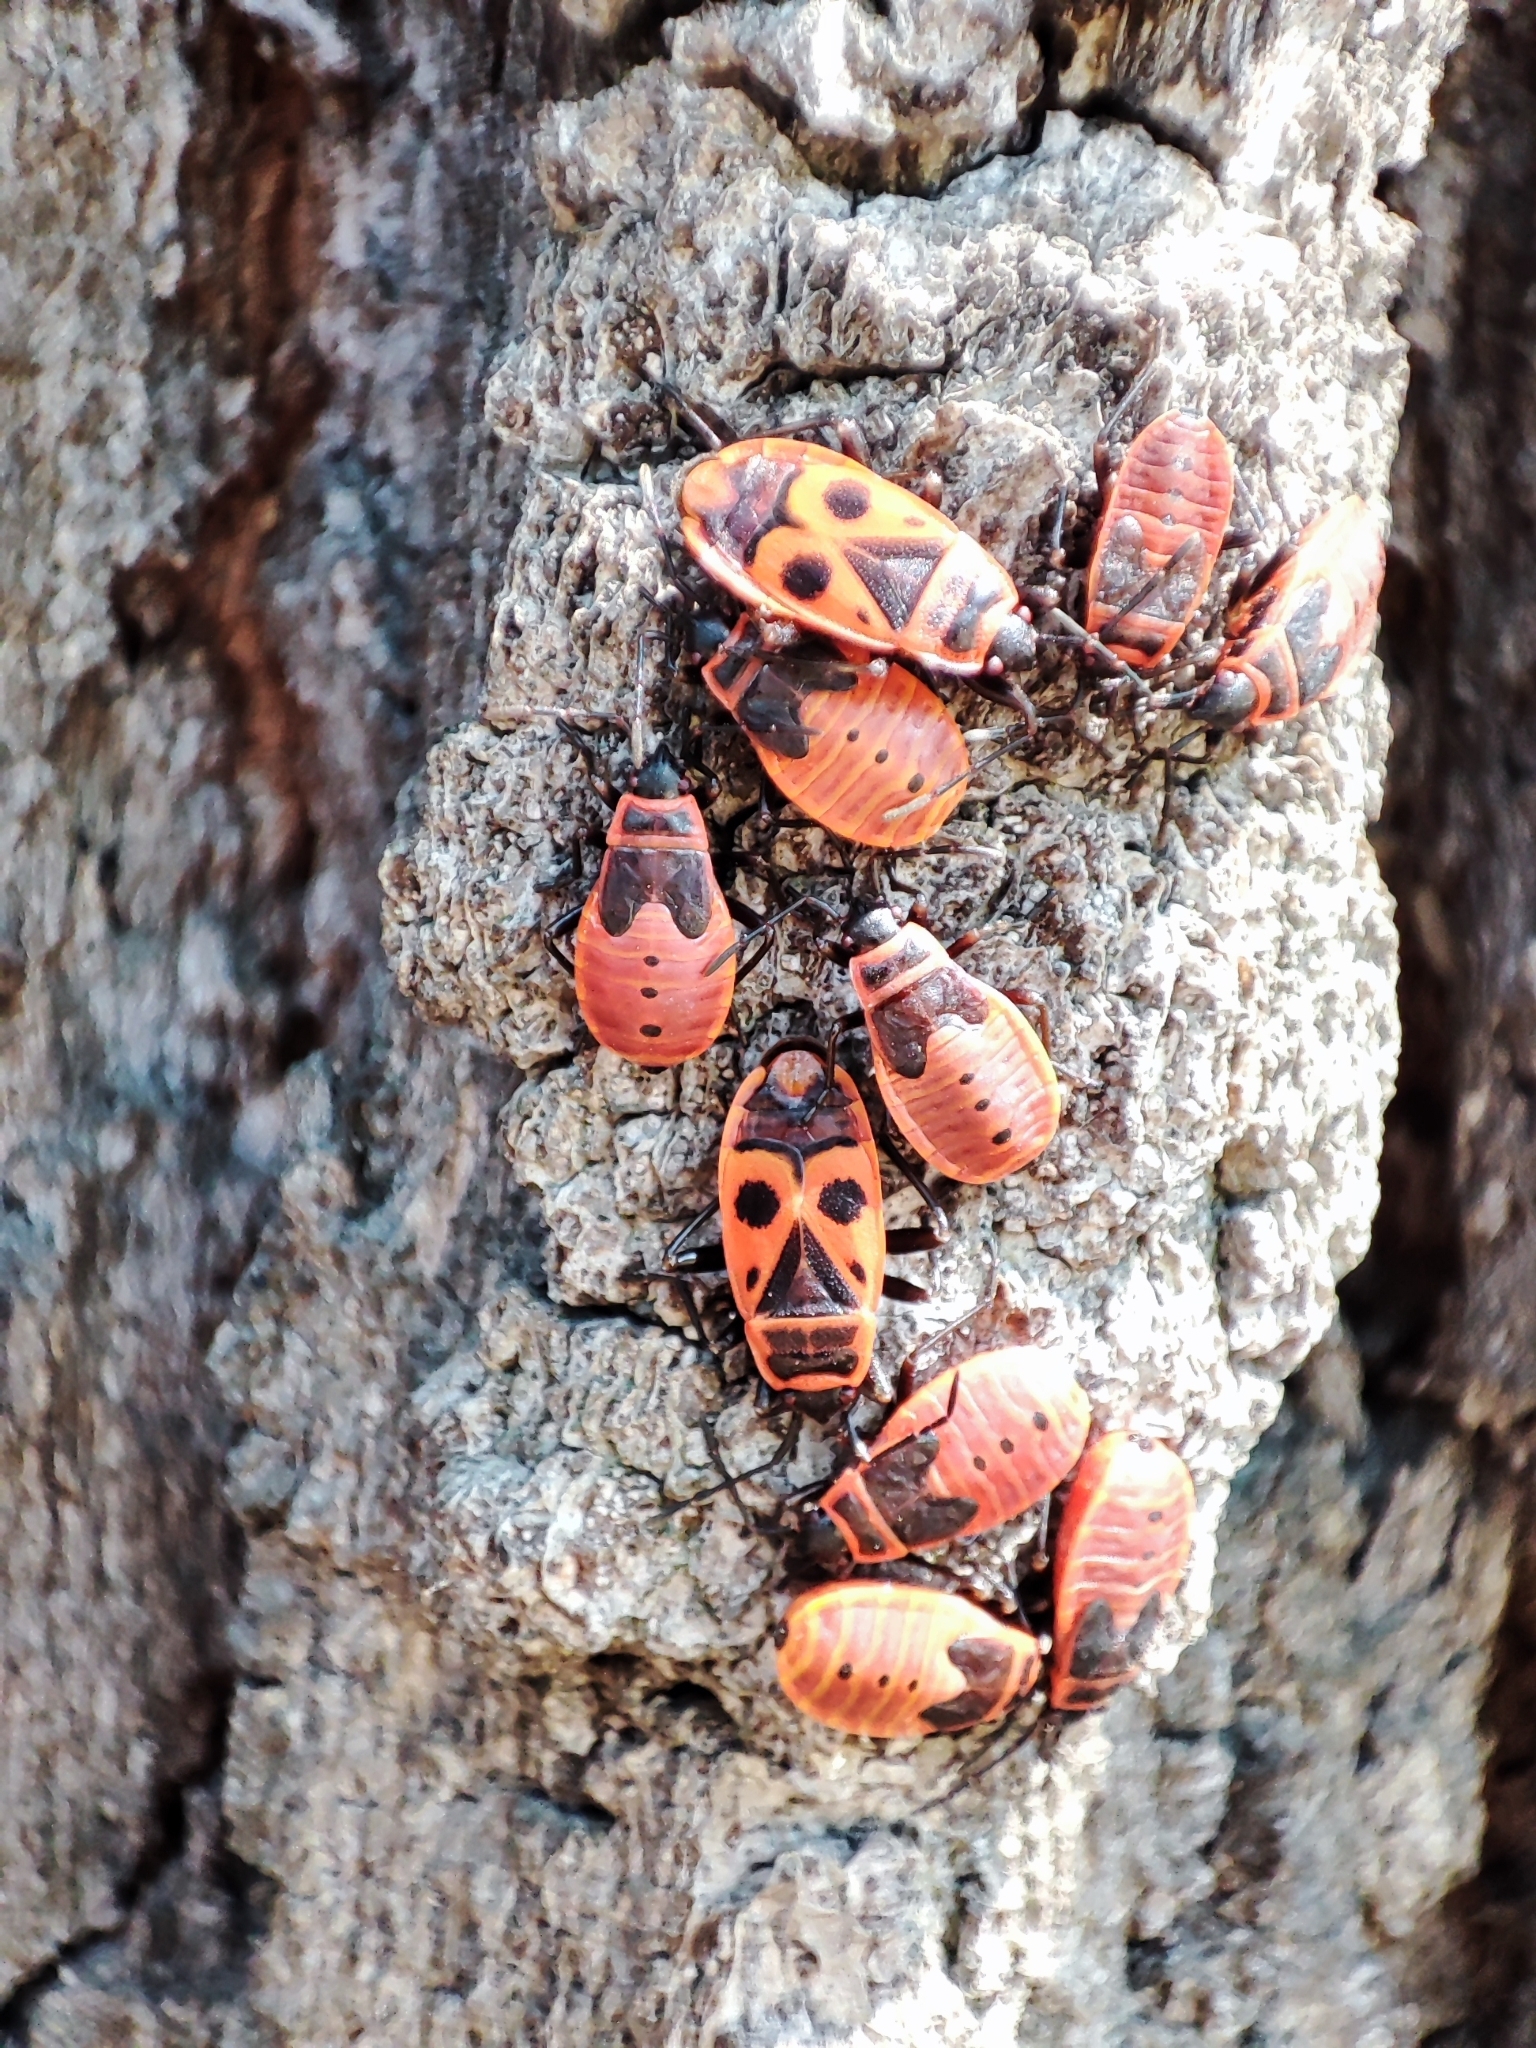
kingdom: Animalia
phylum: Arthropoda
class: Insecta
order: Hemiptera
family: Pyrrhocoridae
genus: Pyrrhocoris
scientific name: Pyrrhocoris apterus
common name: Firebug
